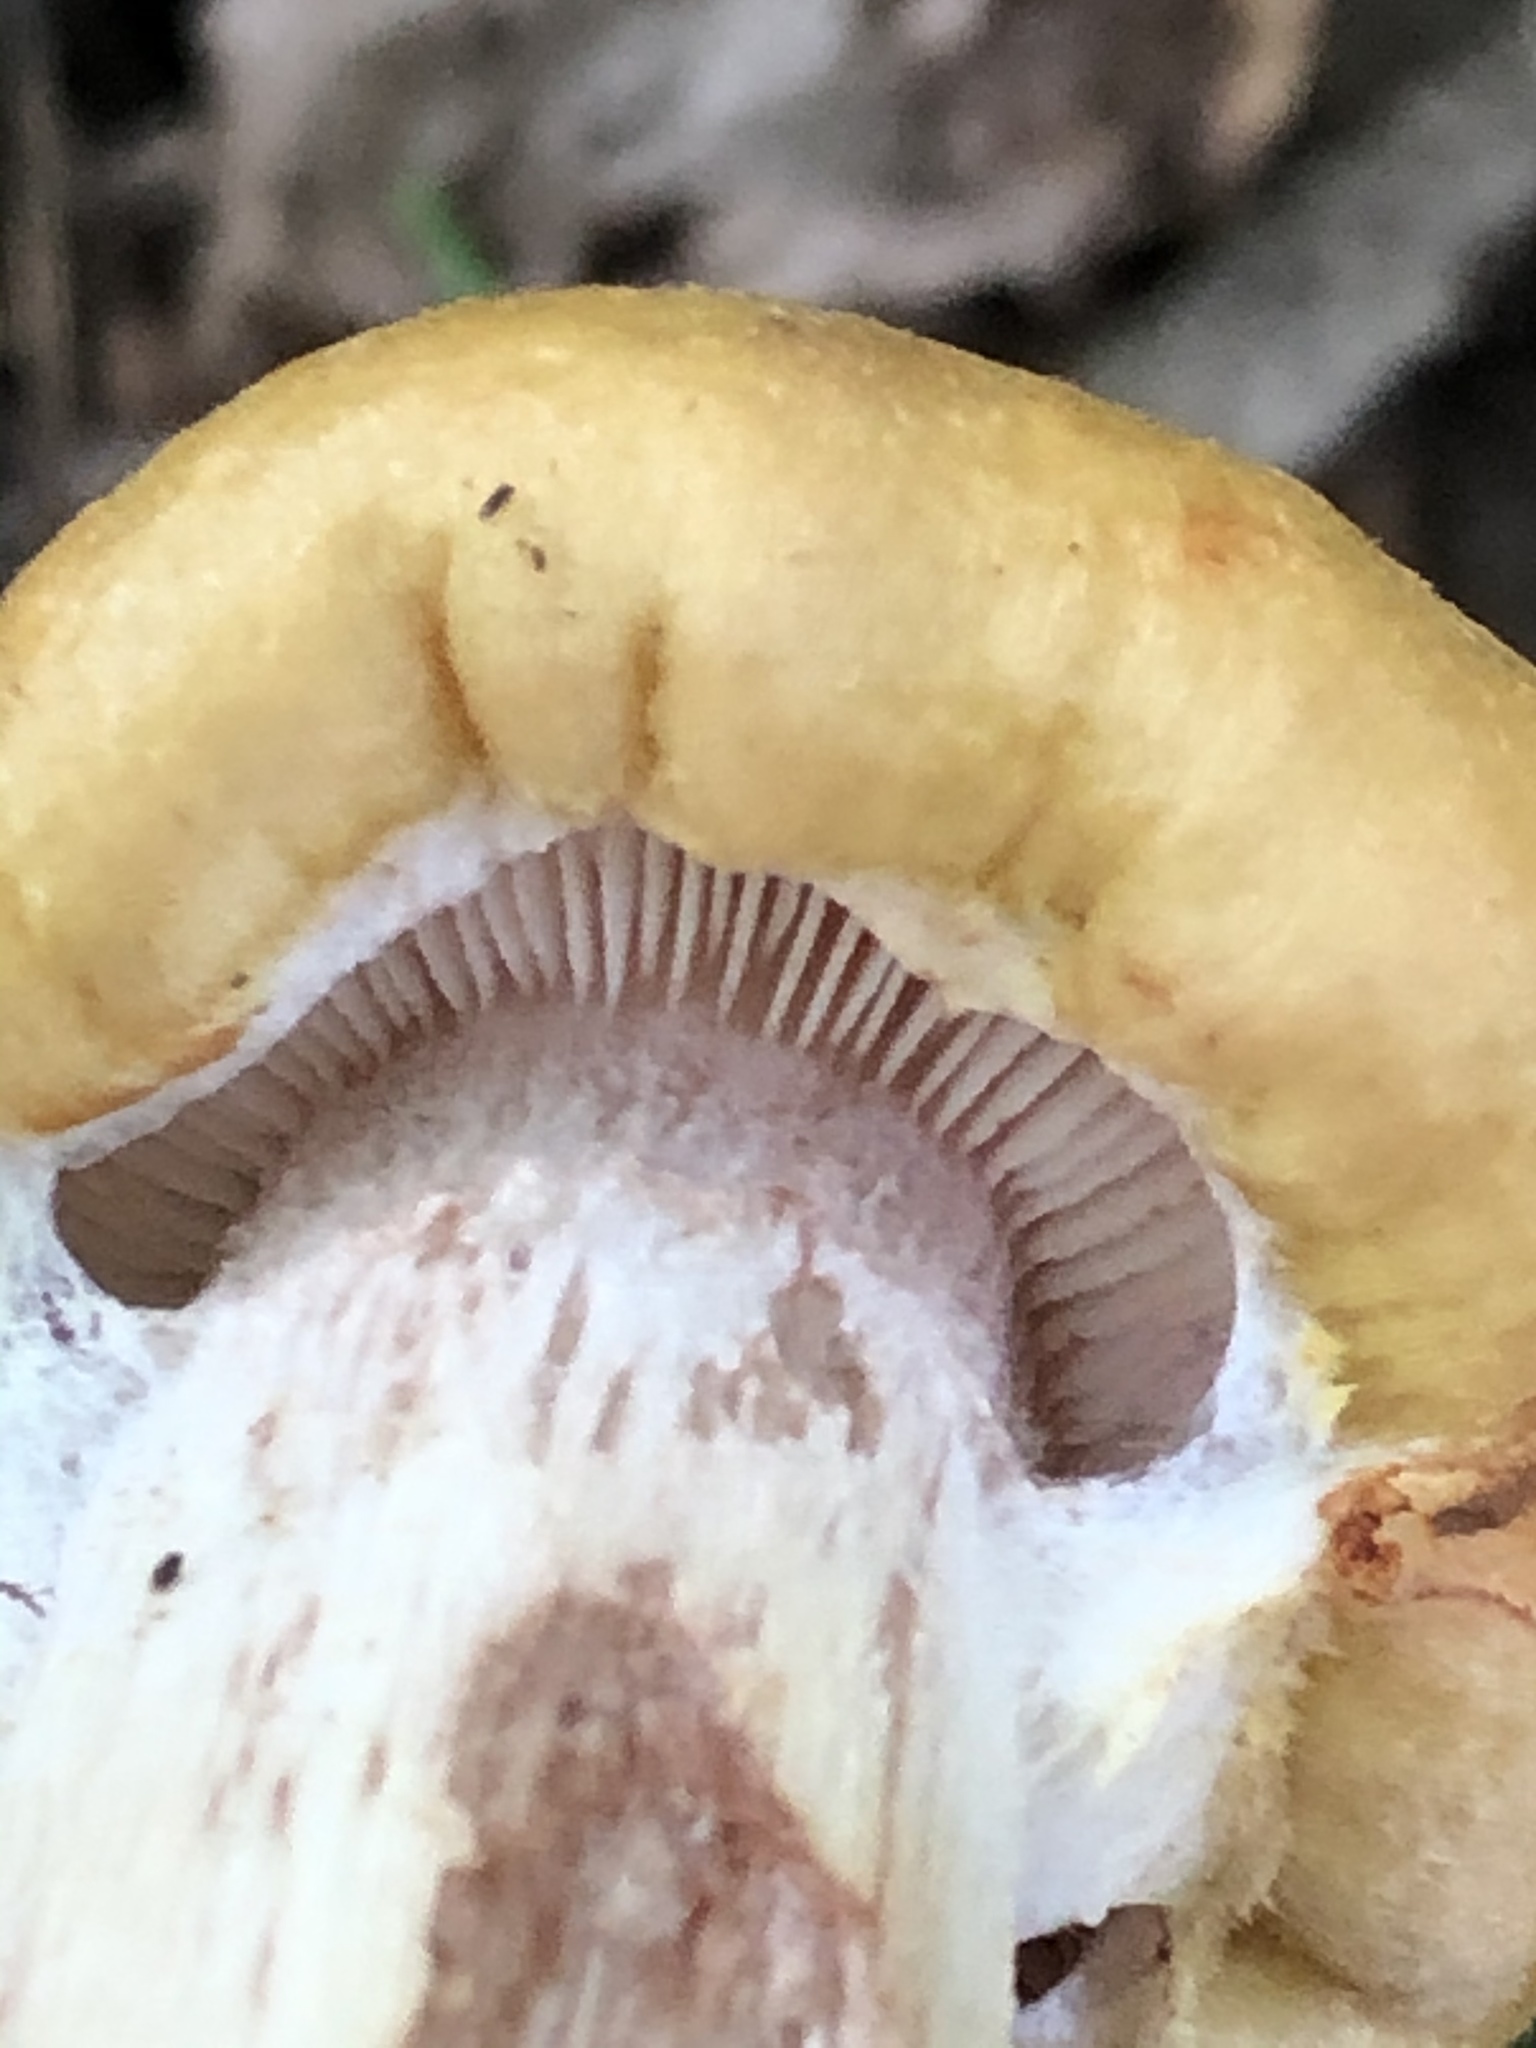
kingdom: Fungi
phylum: Basidiomycota
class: Agaricomycetes
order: Agaricales
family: Physalacriaceae
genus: Armillaria
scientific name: Armillaria mellea
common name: Honey fungus
